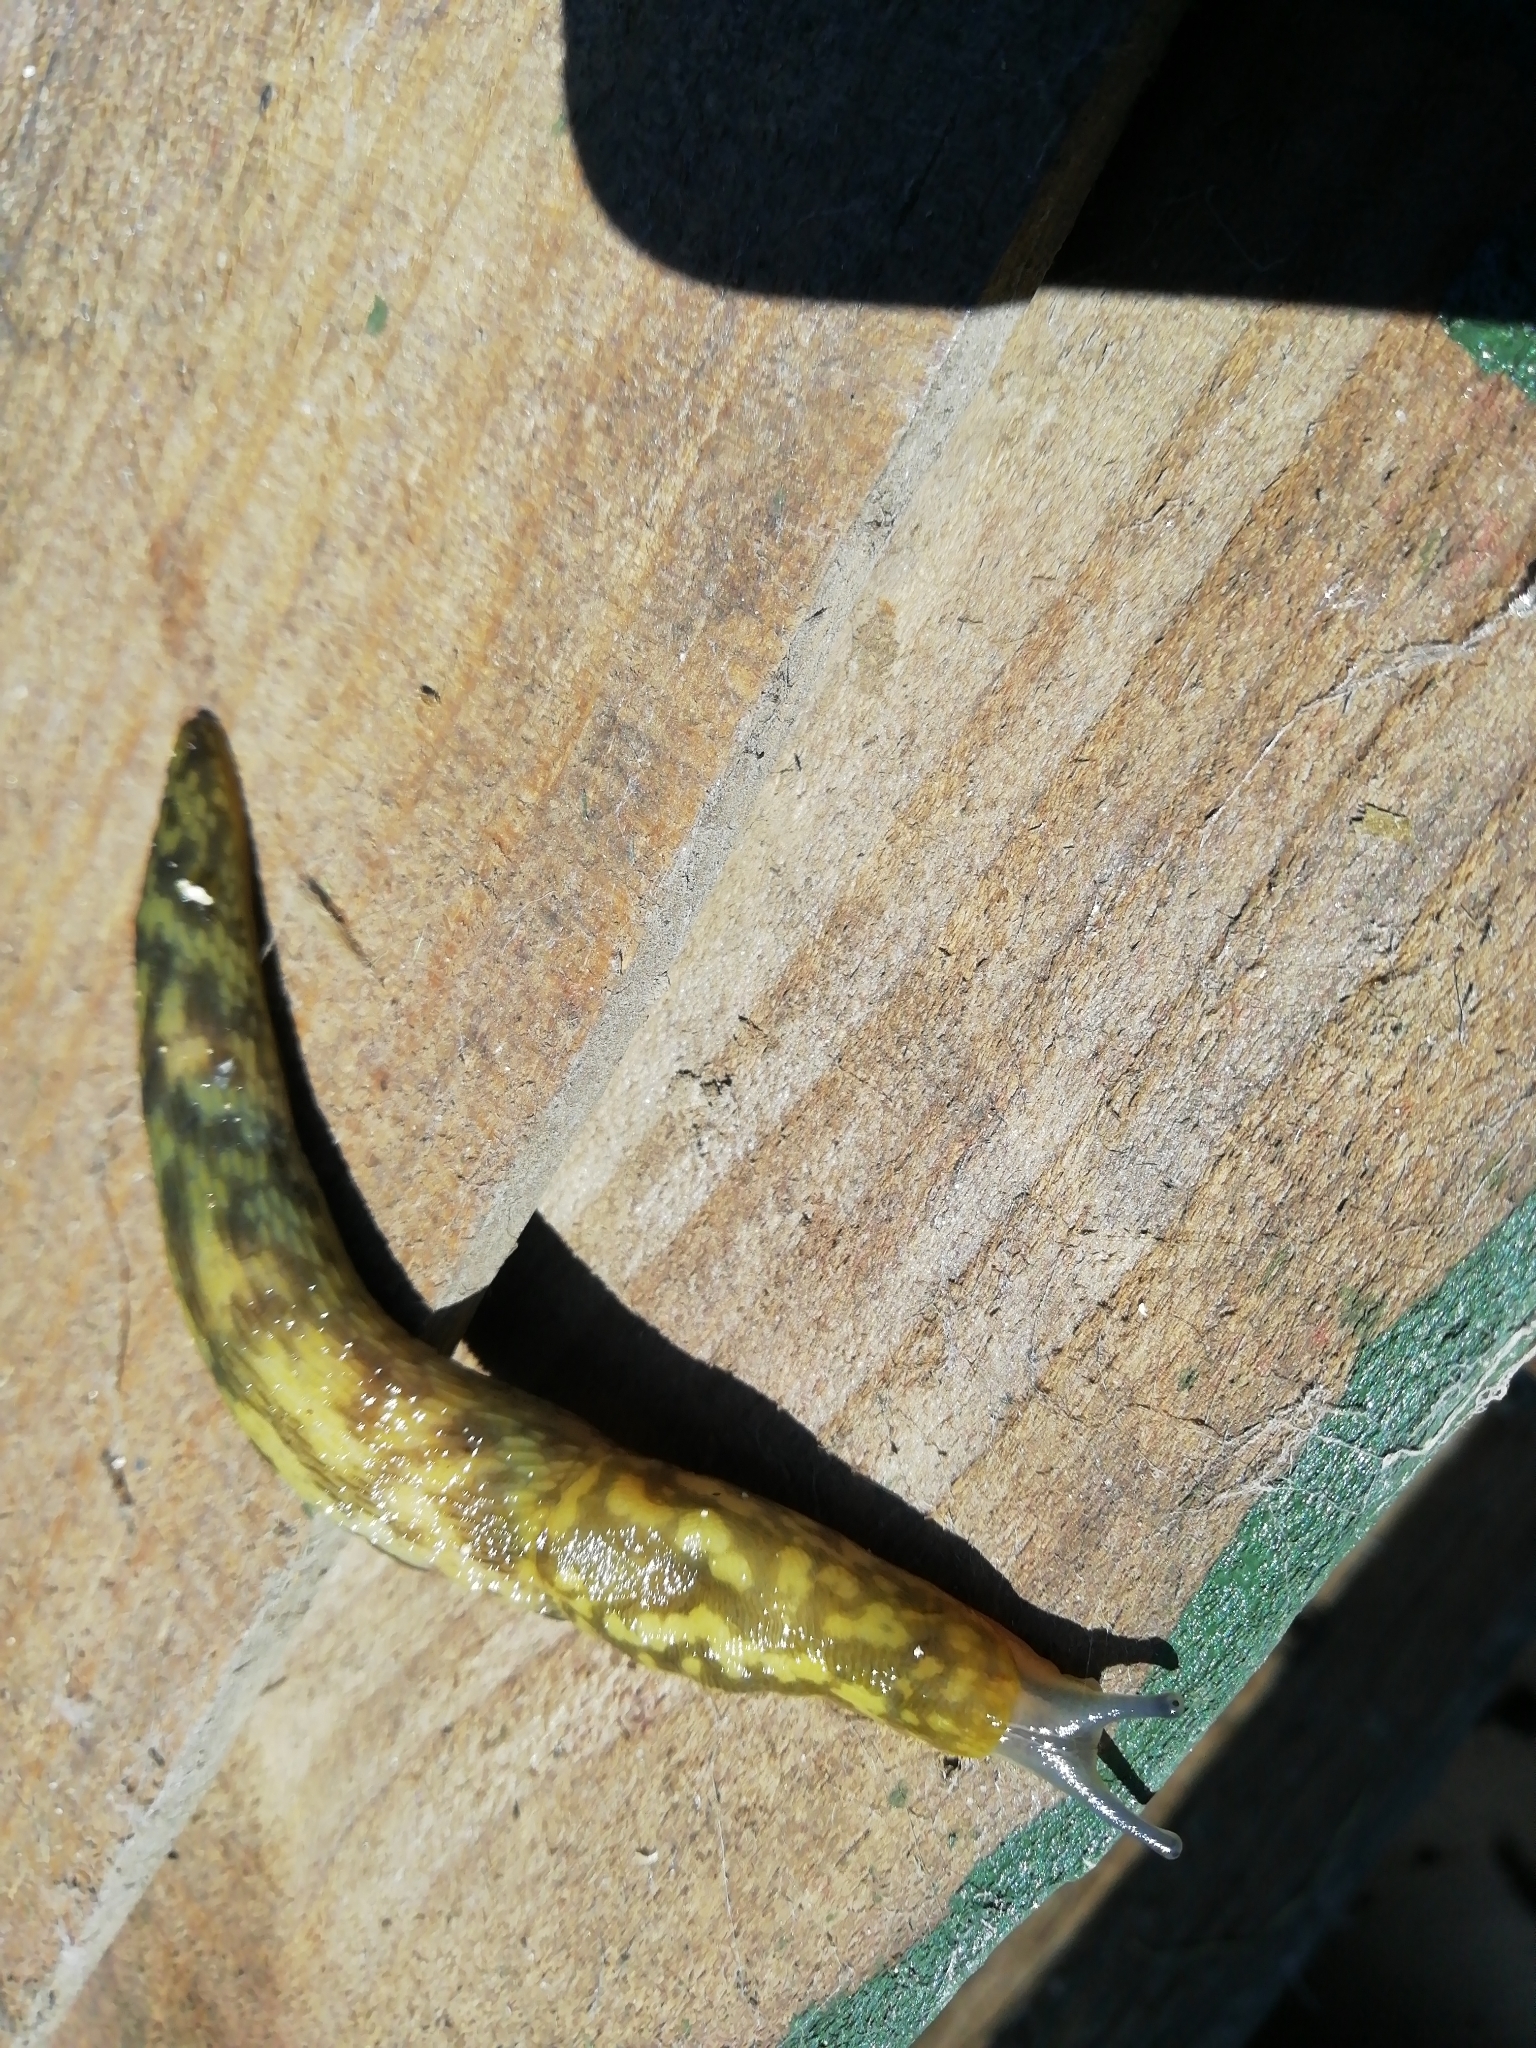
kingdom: Animalia
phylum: Mollusca
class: Gastropoda
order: Stylommatophora
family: Limacidae
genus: Limacus
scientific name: Limacus maculatus
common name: Irish yellow slug
